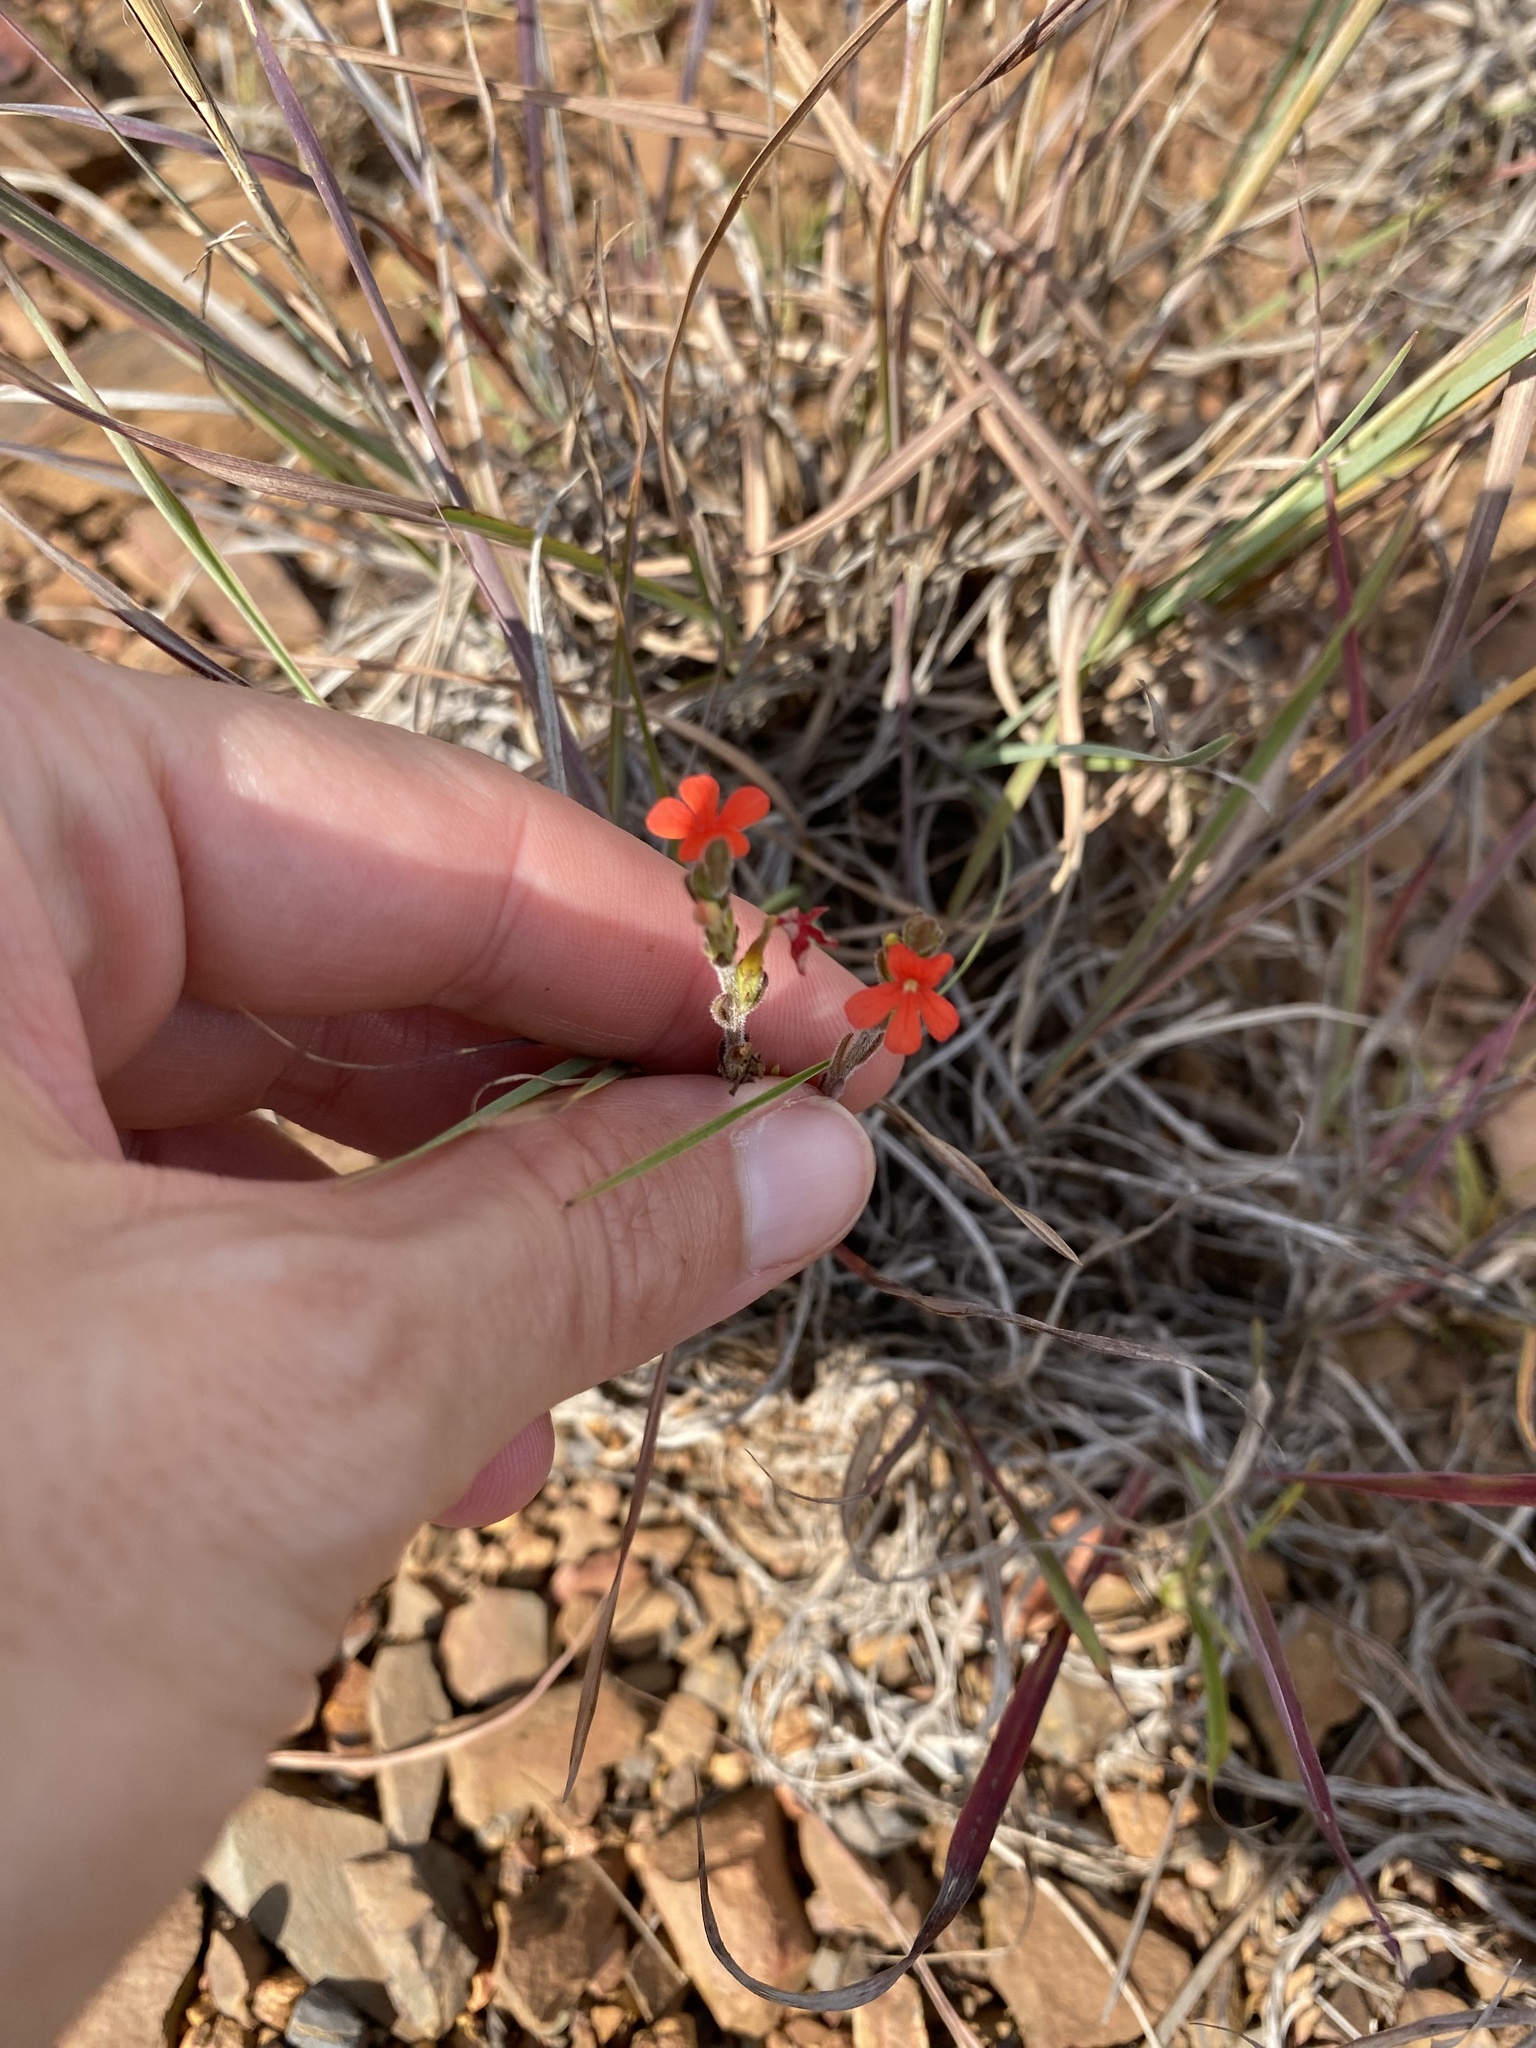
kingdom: Plantae
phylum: Tracheophyta
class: Magnoliopsida
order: Lamiales
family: Orobanchaceae
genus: Striga
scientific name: Striga elegans
